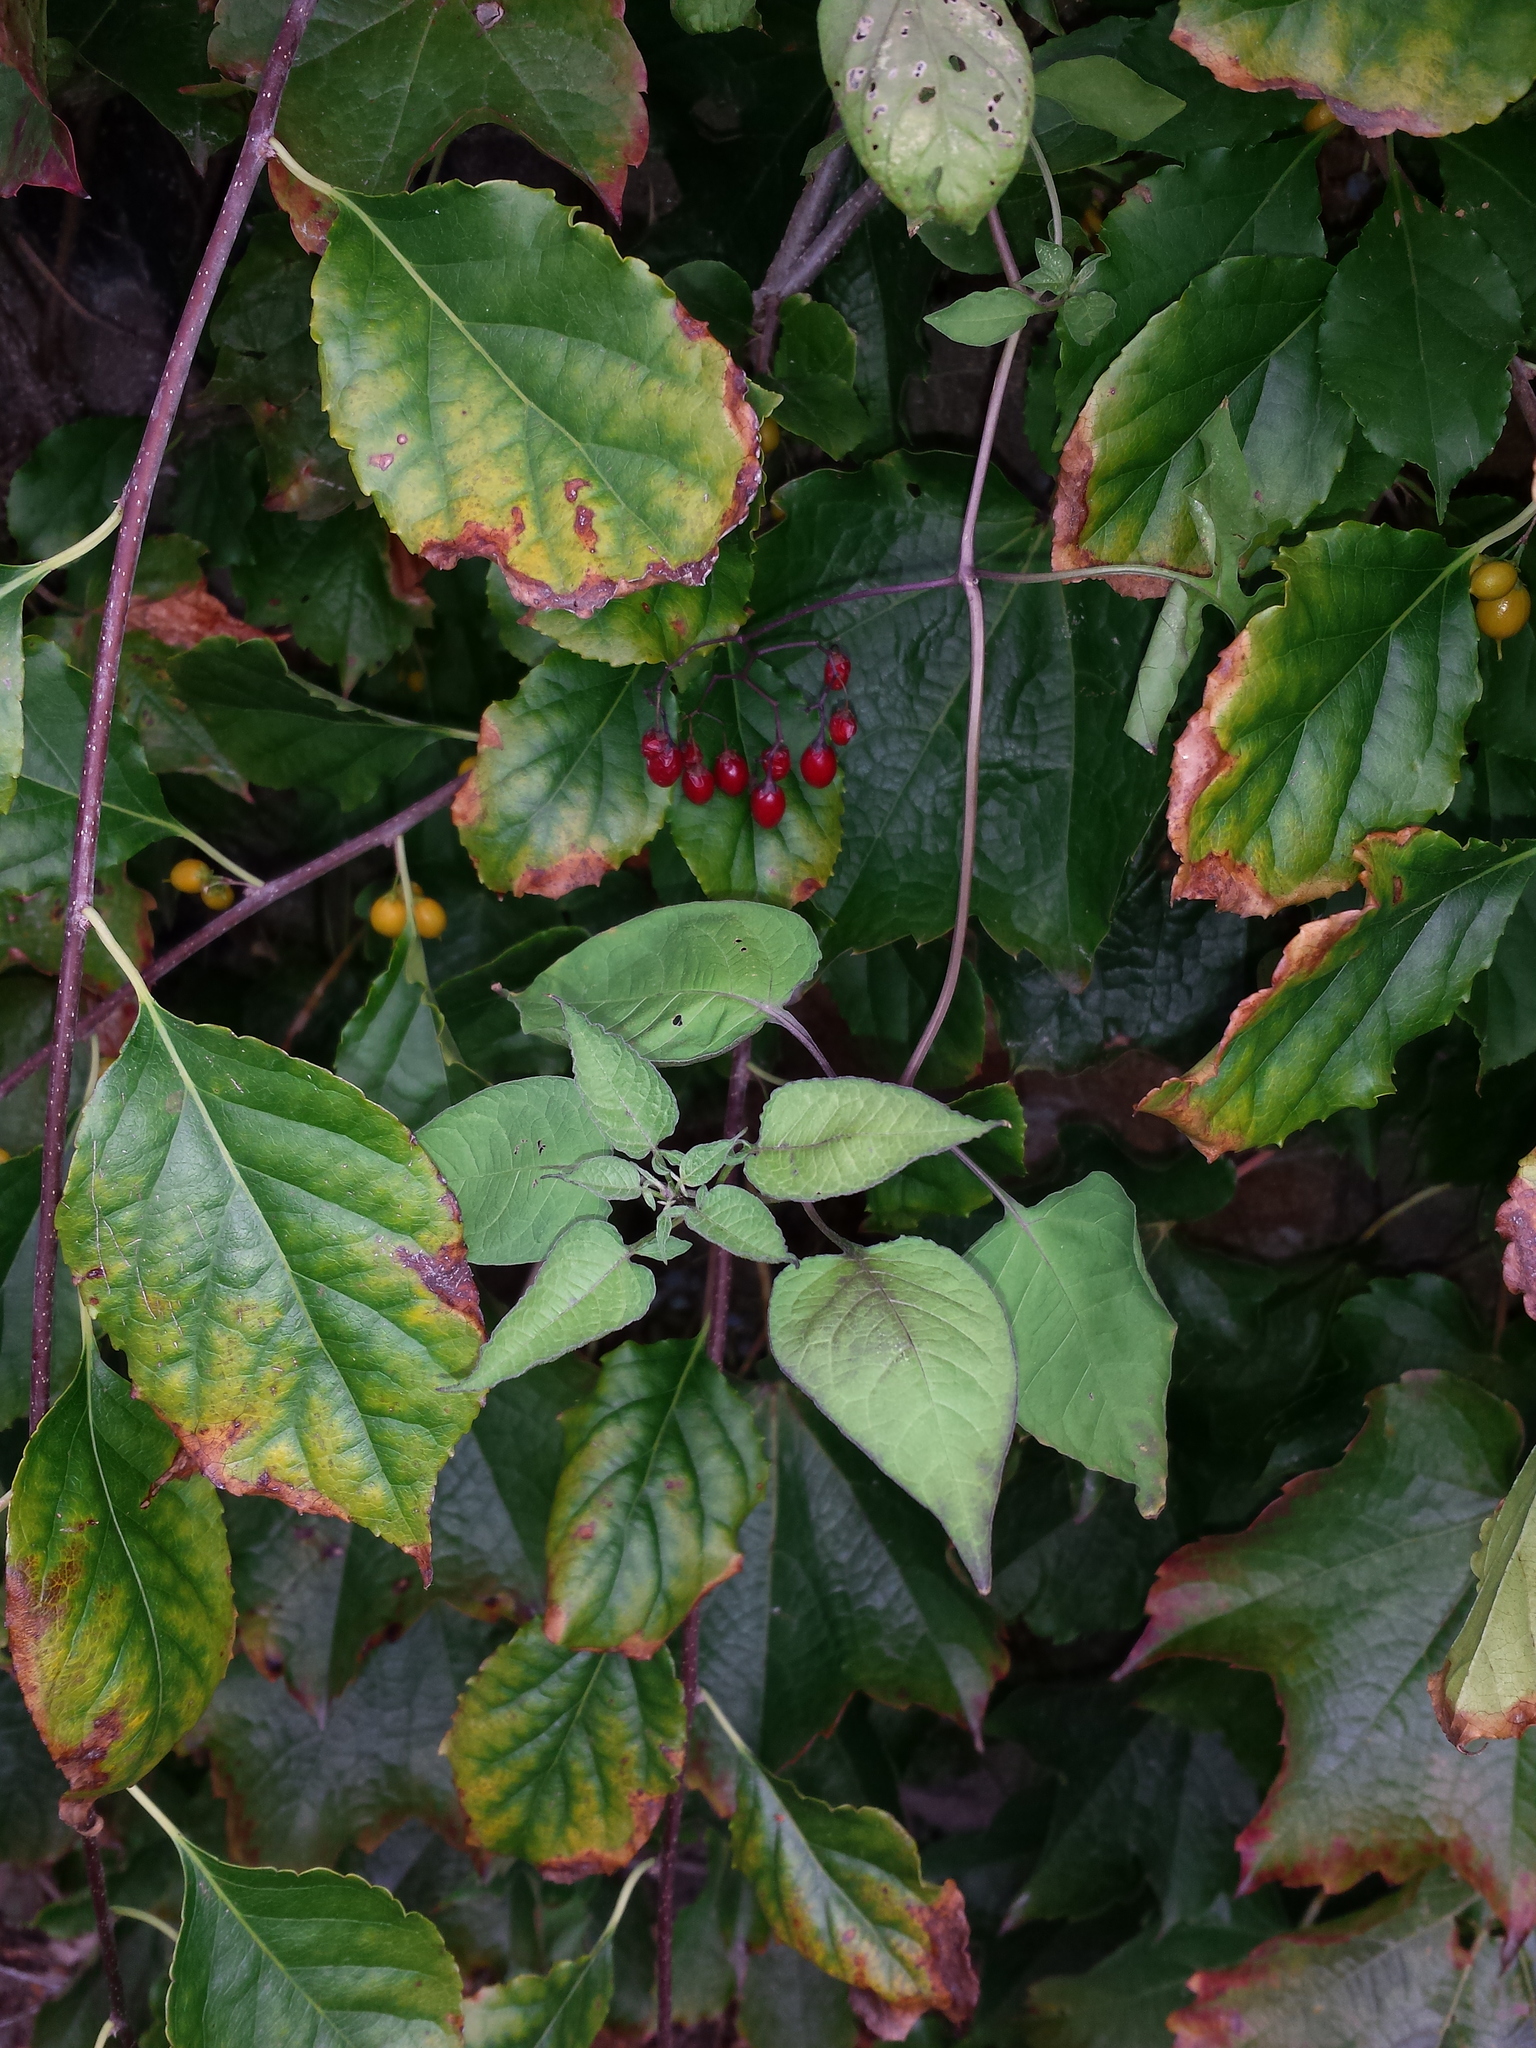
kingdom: Plantae
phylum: Tracheophyta
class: Magnoliopsida
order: Solanales
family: Solanaceae
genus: Solanum
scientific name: Solanum dulcamara
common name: Climbing nightshade
